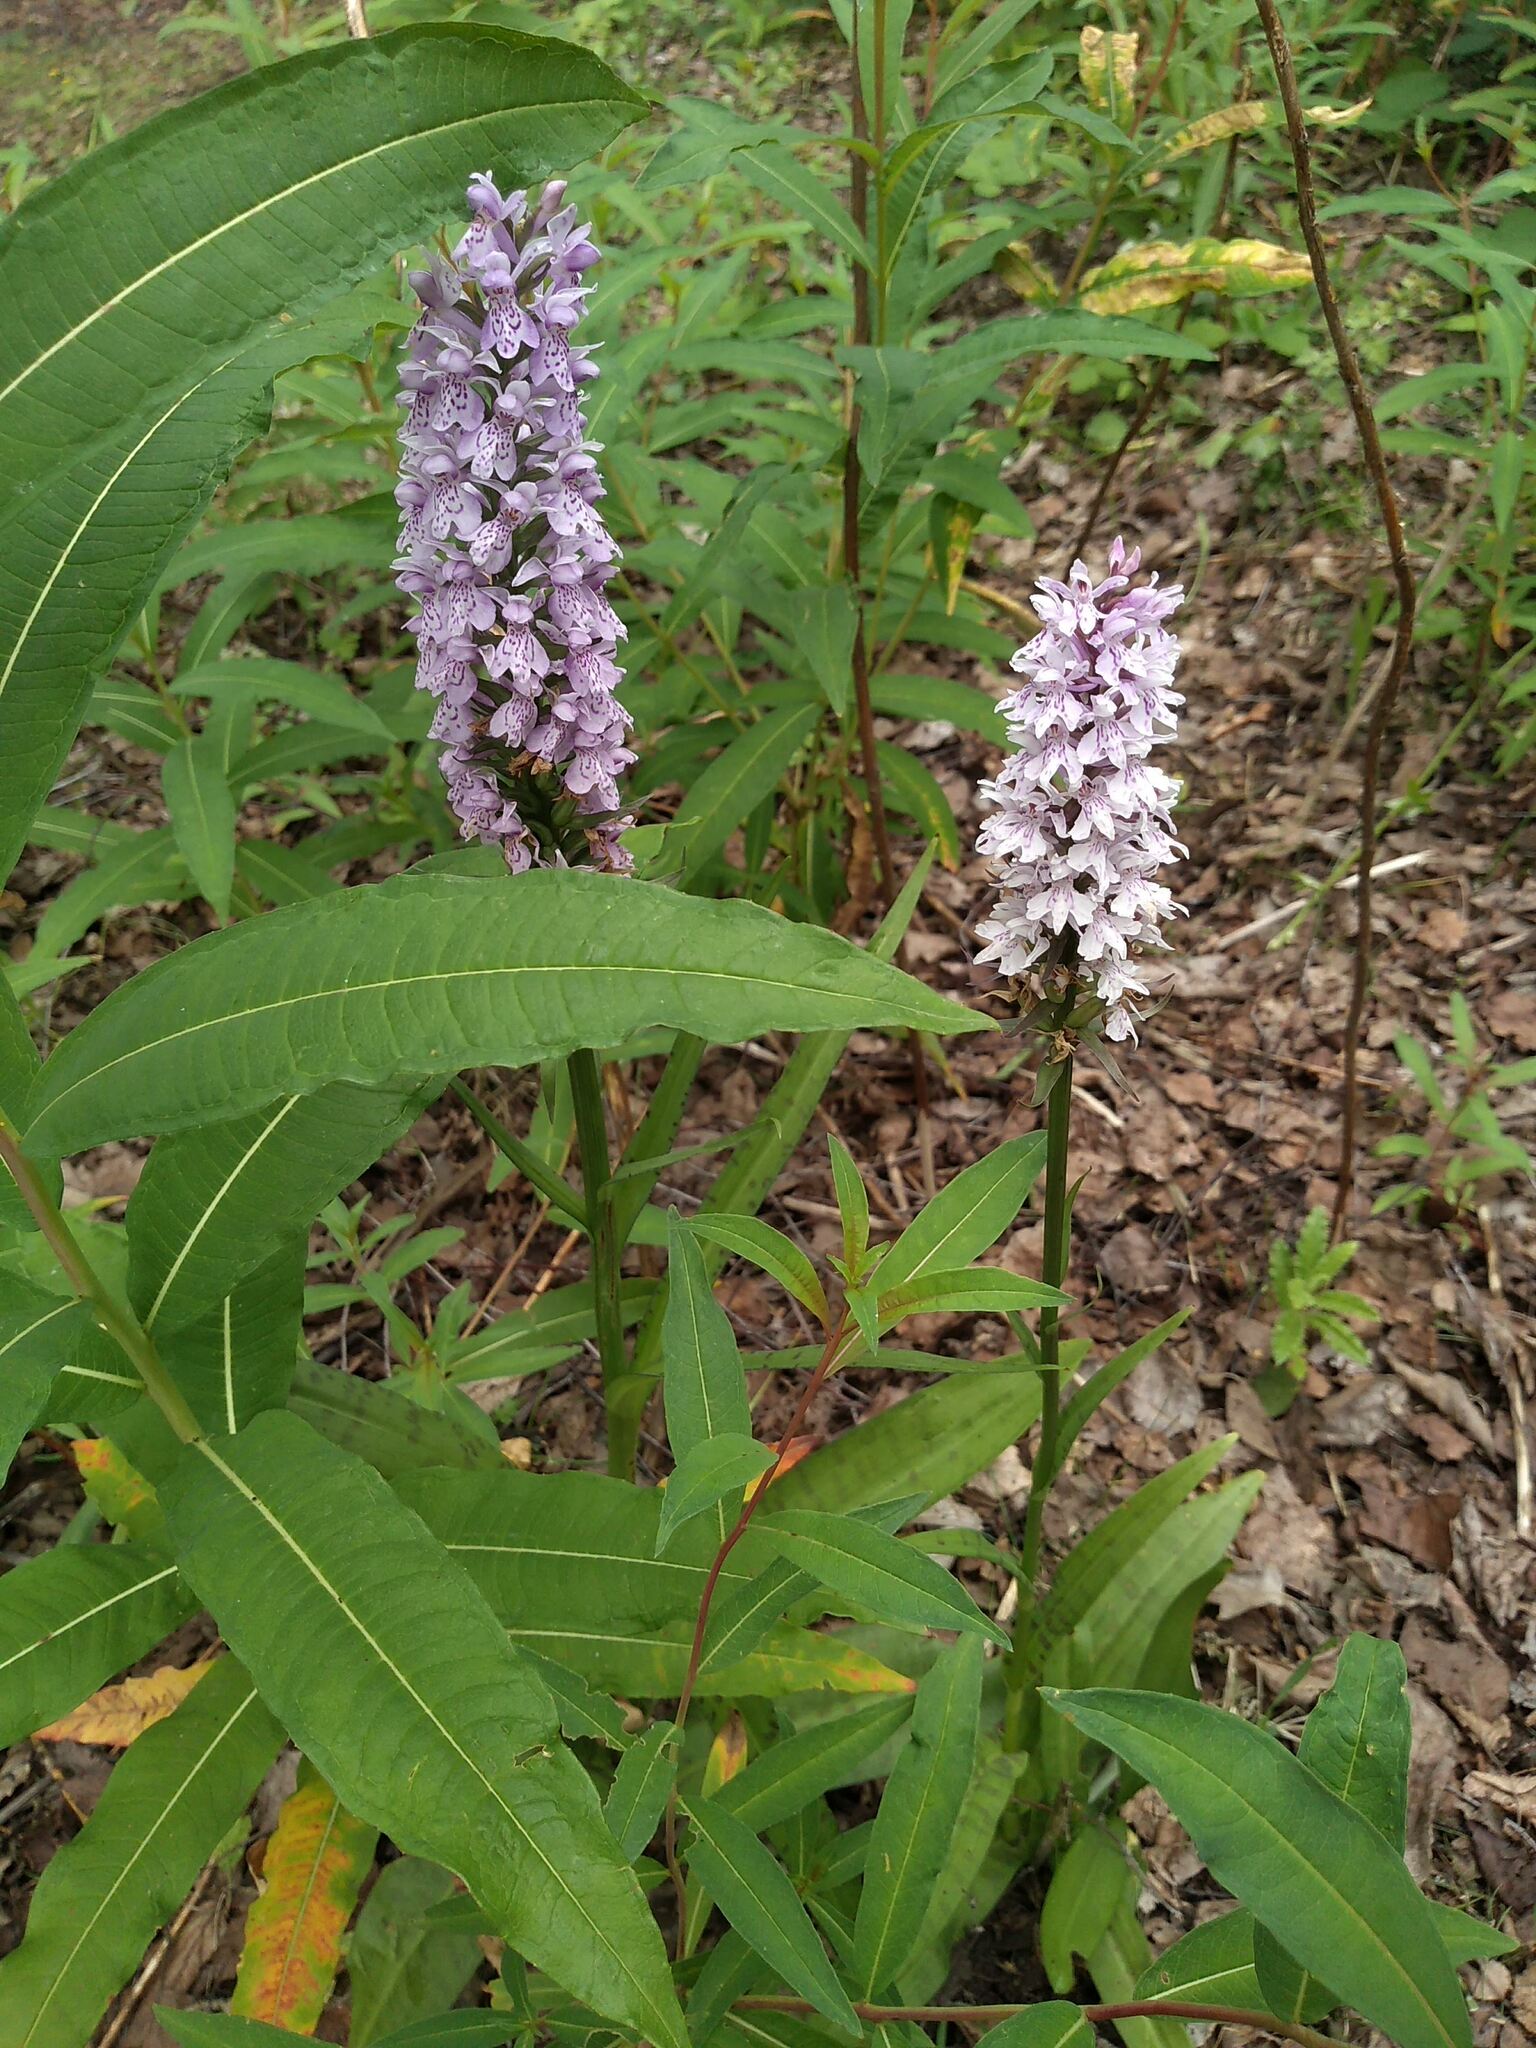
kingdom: Plantae
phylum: Tracheophyta
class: Liliopsida
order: Asparagales
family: Orchidaceae
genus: Dactylorhiza
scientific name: Dactylorhiza maculata
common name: Heath spotted-orchid
